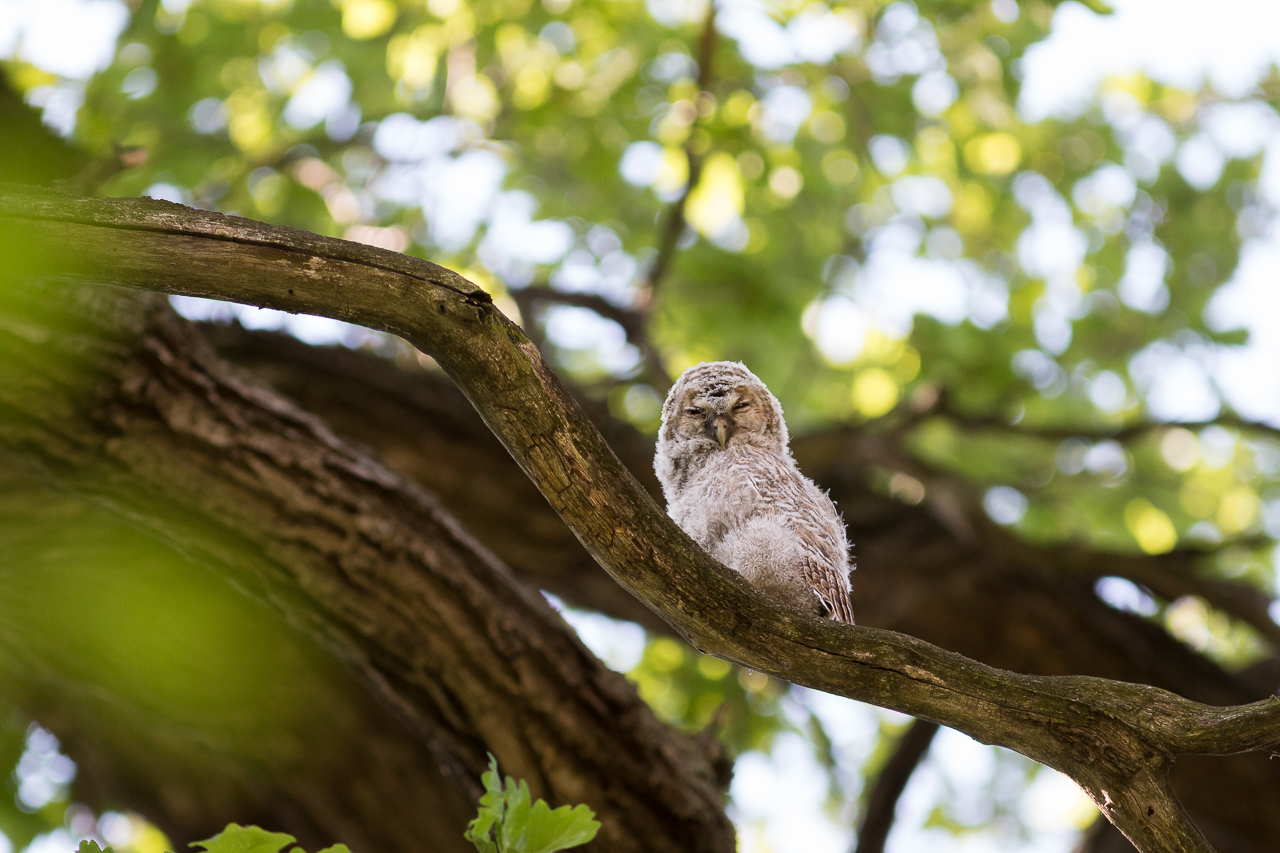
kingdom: Animalia
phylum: Chordata
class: Aves
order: Strigiformes
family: Strigidae
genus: Strix
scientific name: Strix aluco
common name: Tawny owl
